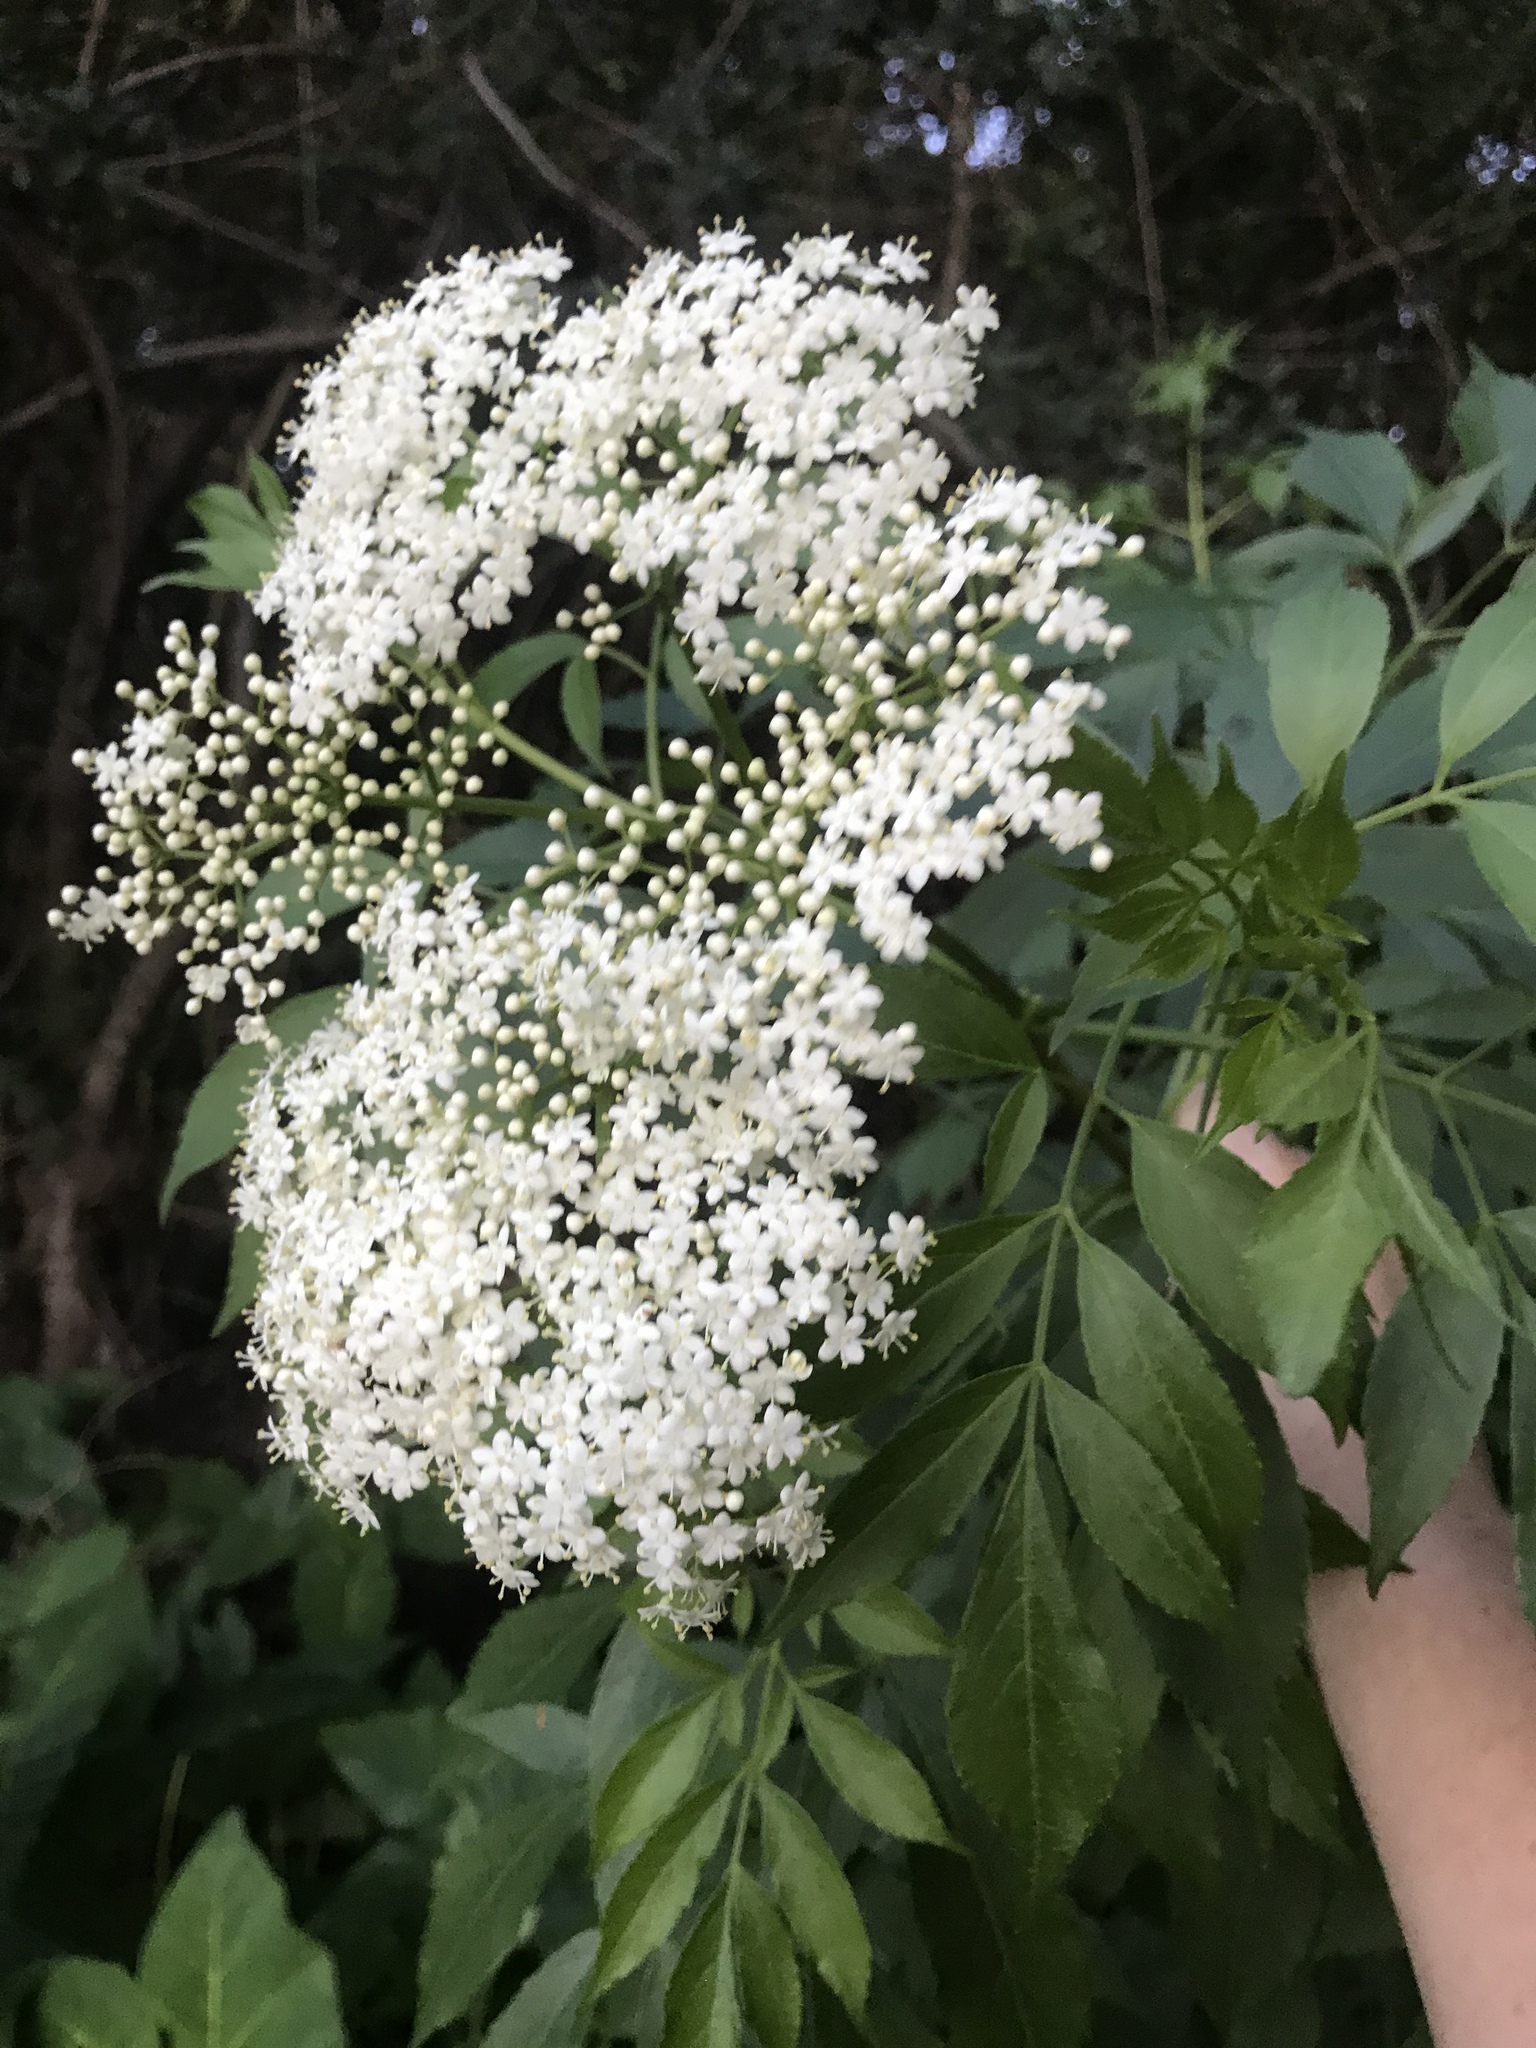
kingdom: Plantae
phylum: Tracheophyta
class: Magnoliopsida
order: Dipsacales
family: Viburnaceae
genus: Sambucus
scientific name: Sambucus canadensis
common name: American elder
